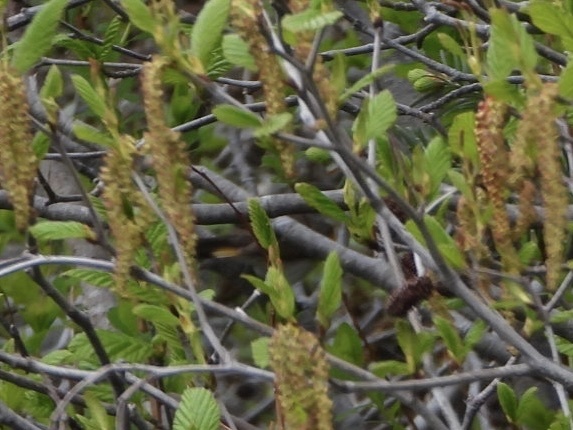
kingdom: Animalia
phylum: Chordata
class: Aves
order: Passeriformes
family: Parulidae
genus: Setophaga
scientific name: Setophaga ruticilla
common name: American redstart
